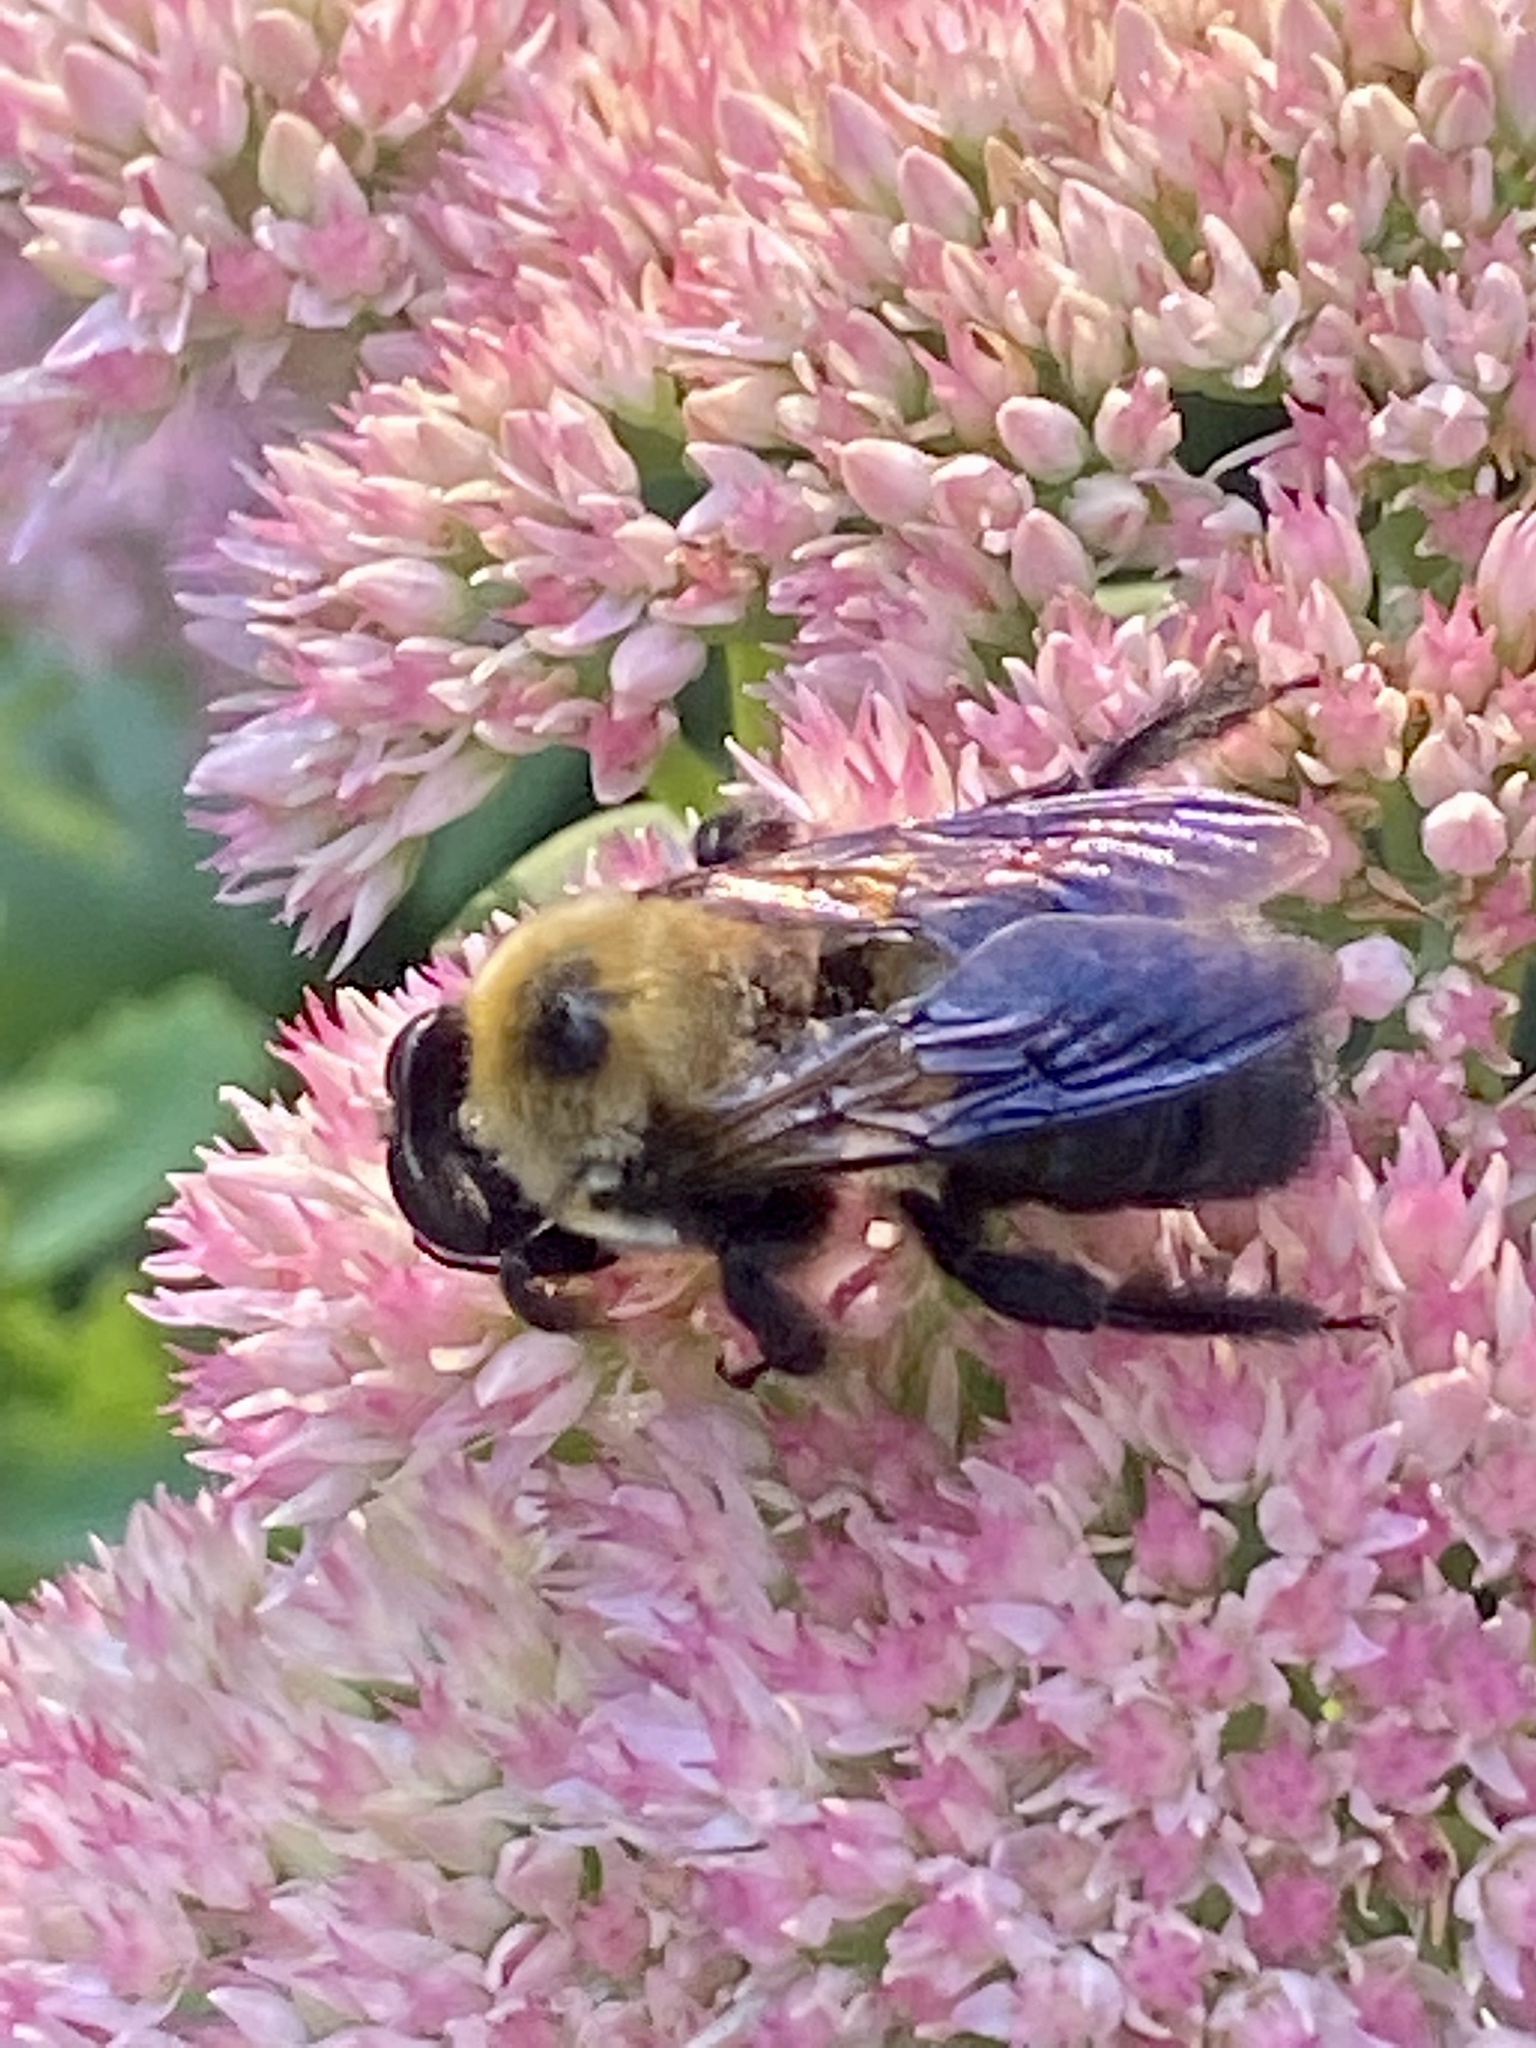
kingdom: Animalia
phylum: Arthropoda
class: Insecta
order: Hymenoptera
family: Apidae
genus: Xylocopa
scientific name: Xylocopa virginica
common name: Carpenter bee
